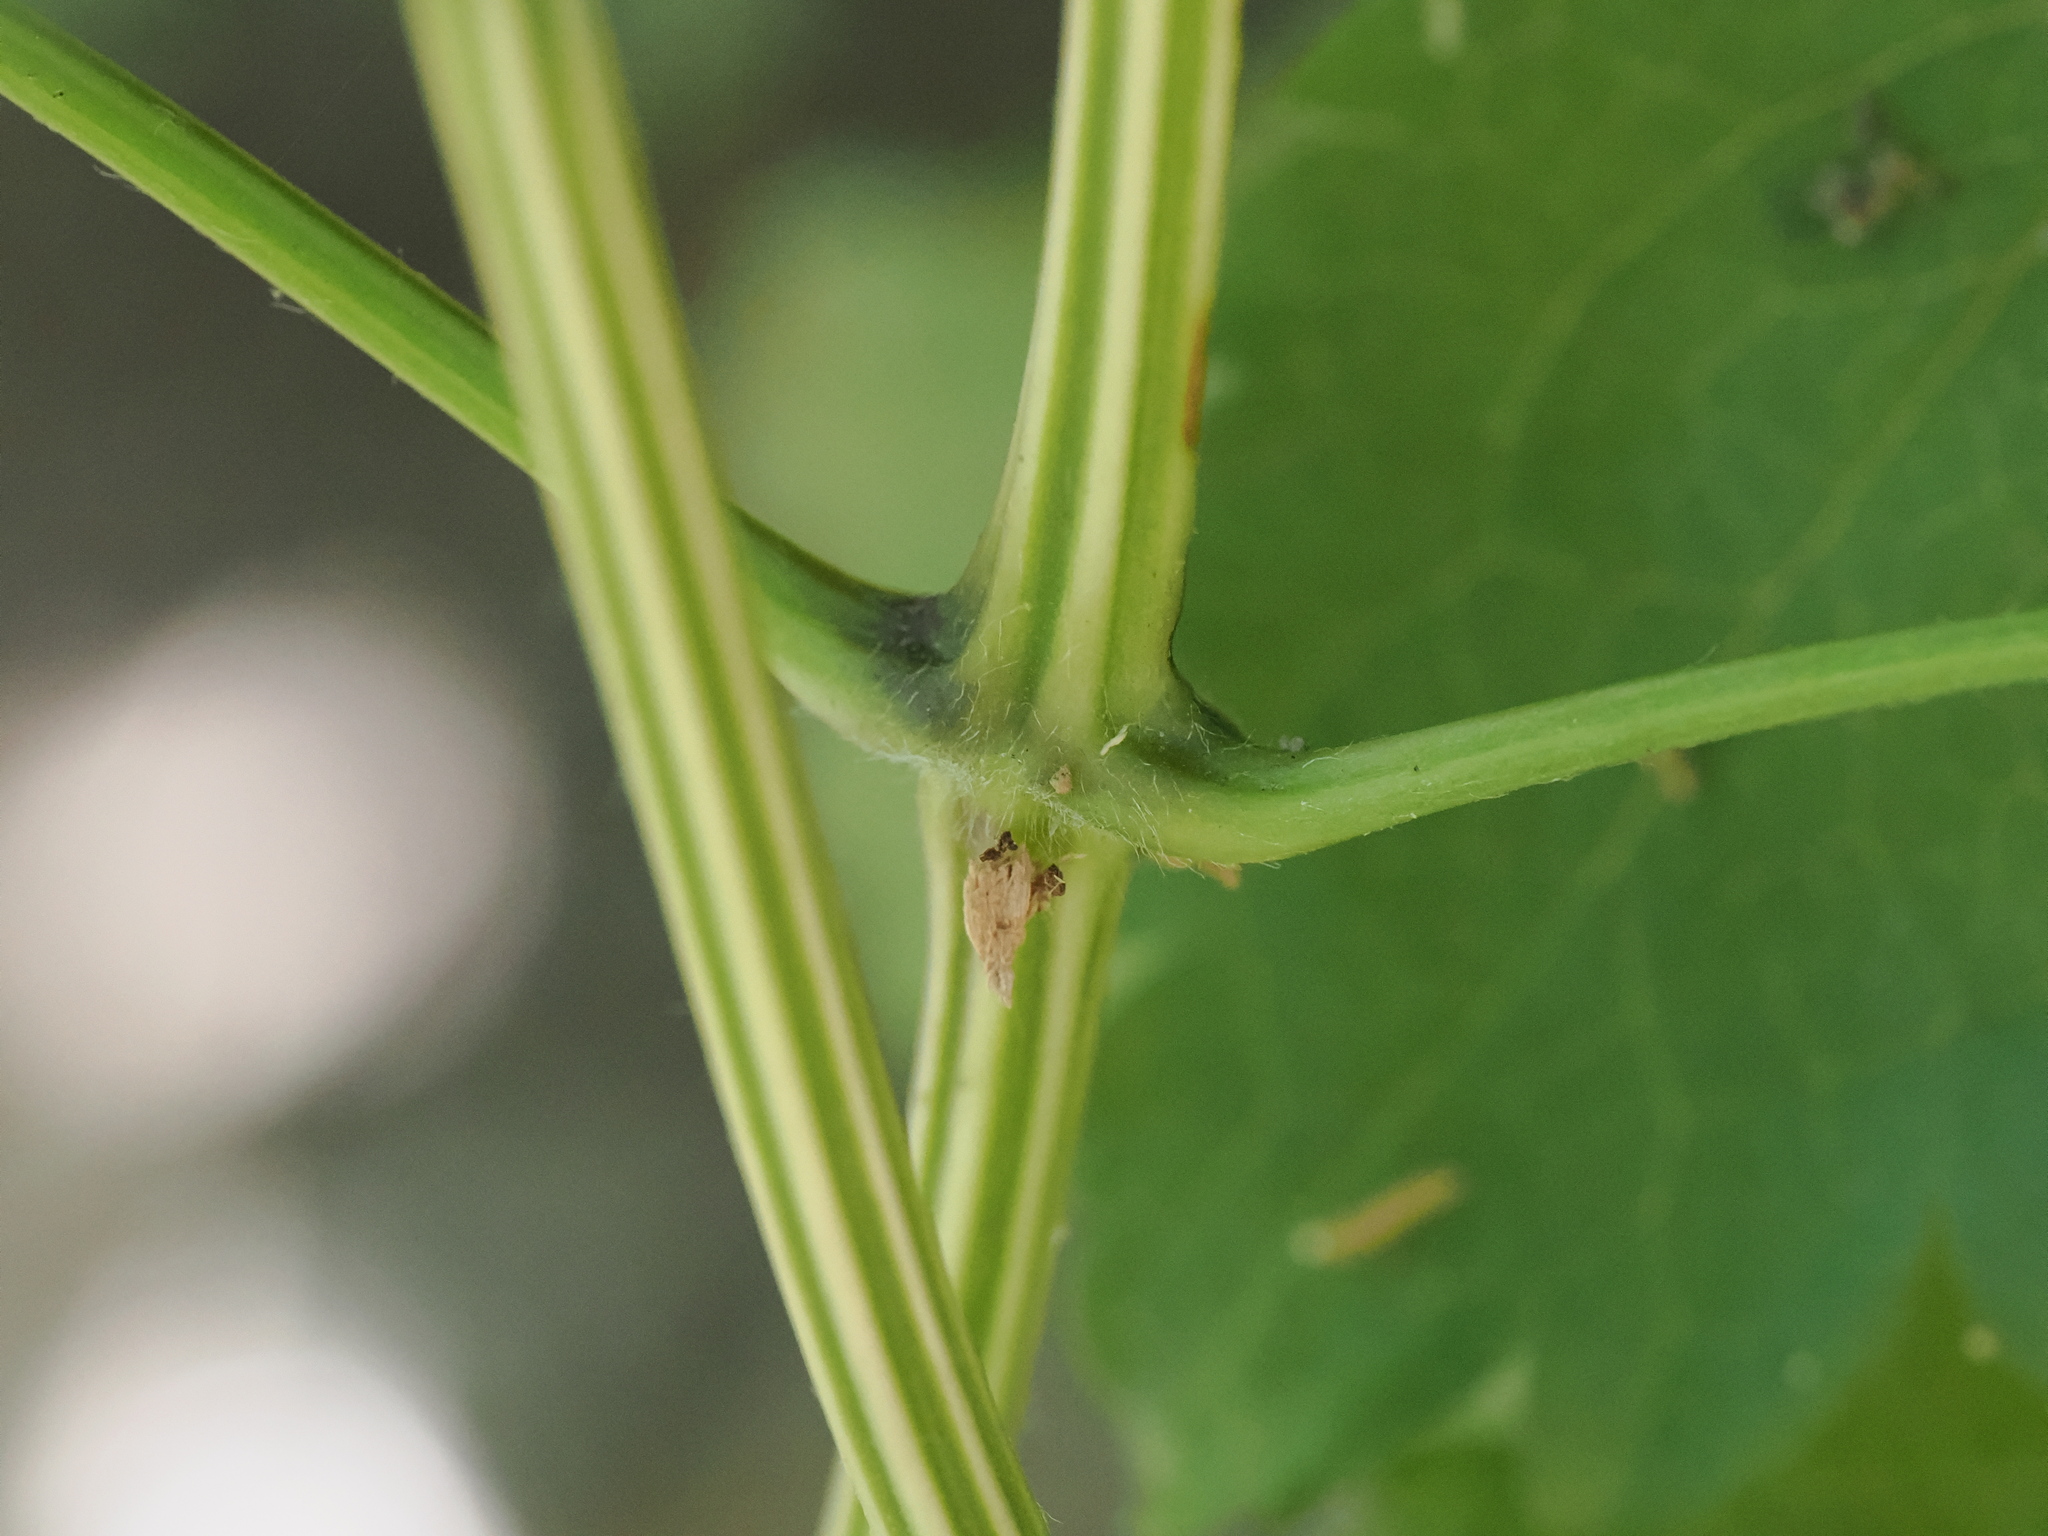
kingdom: Plantae
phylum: Tracheophyta
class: Magnoliopsida
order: Ranunculales
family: Ranunculaceae
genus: Clematis
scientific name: Clematis vitalba
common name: Evergreen clematis
